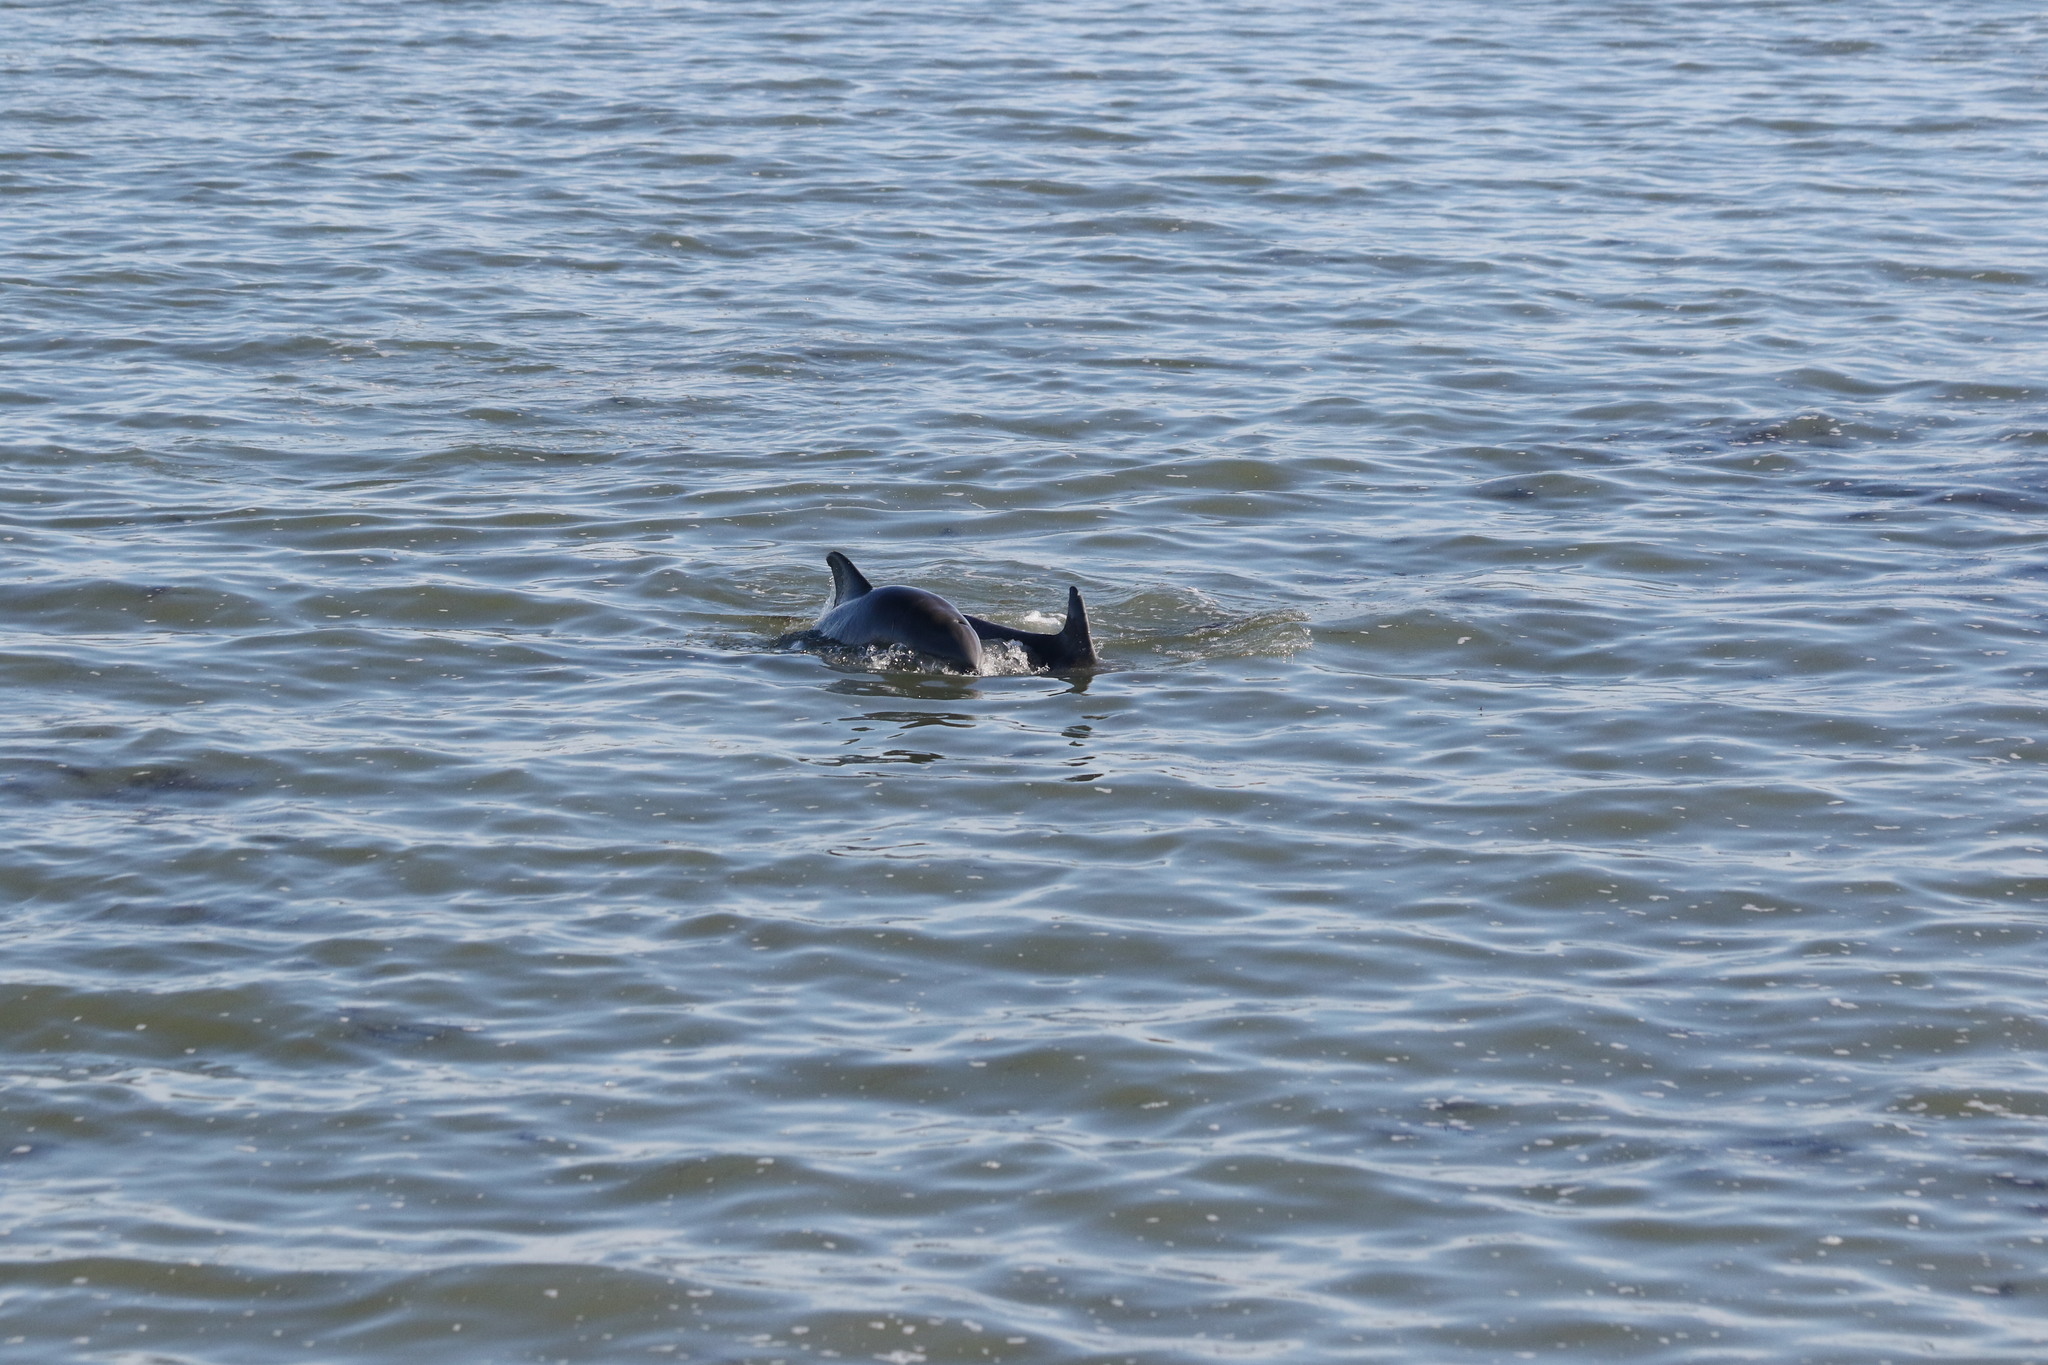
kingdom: Animalia
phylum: Chordata
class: Mammalia
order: Cetacea
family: Delphinidae
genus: Tursiops
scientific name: Tursiops truncatus
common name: Bottlenose dolphin
